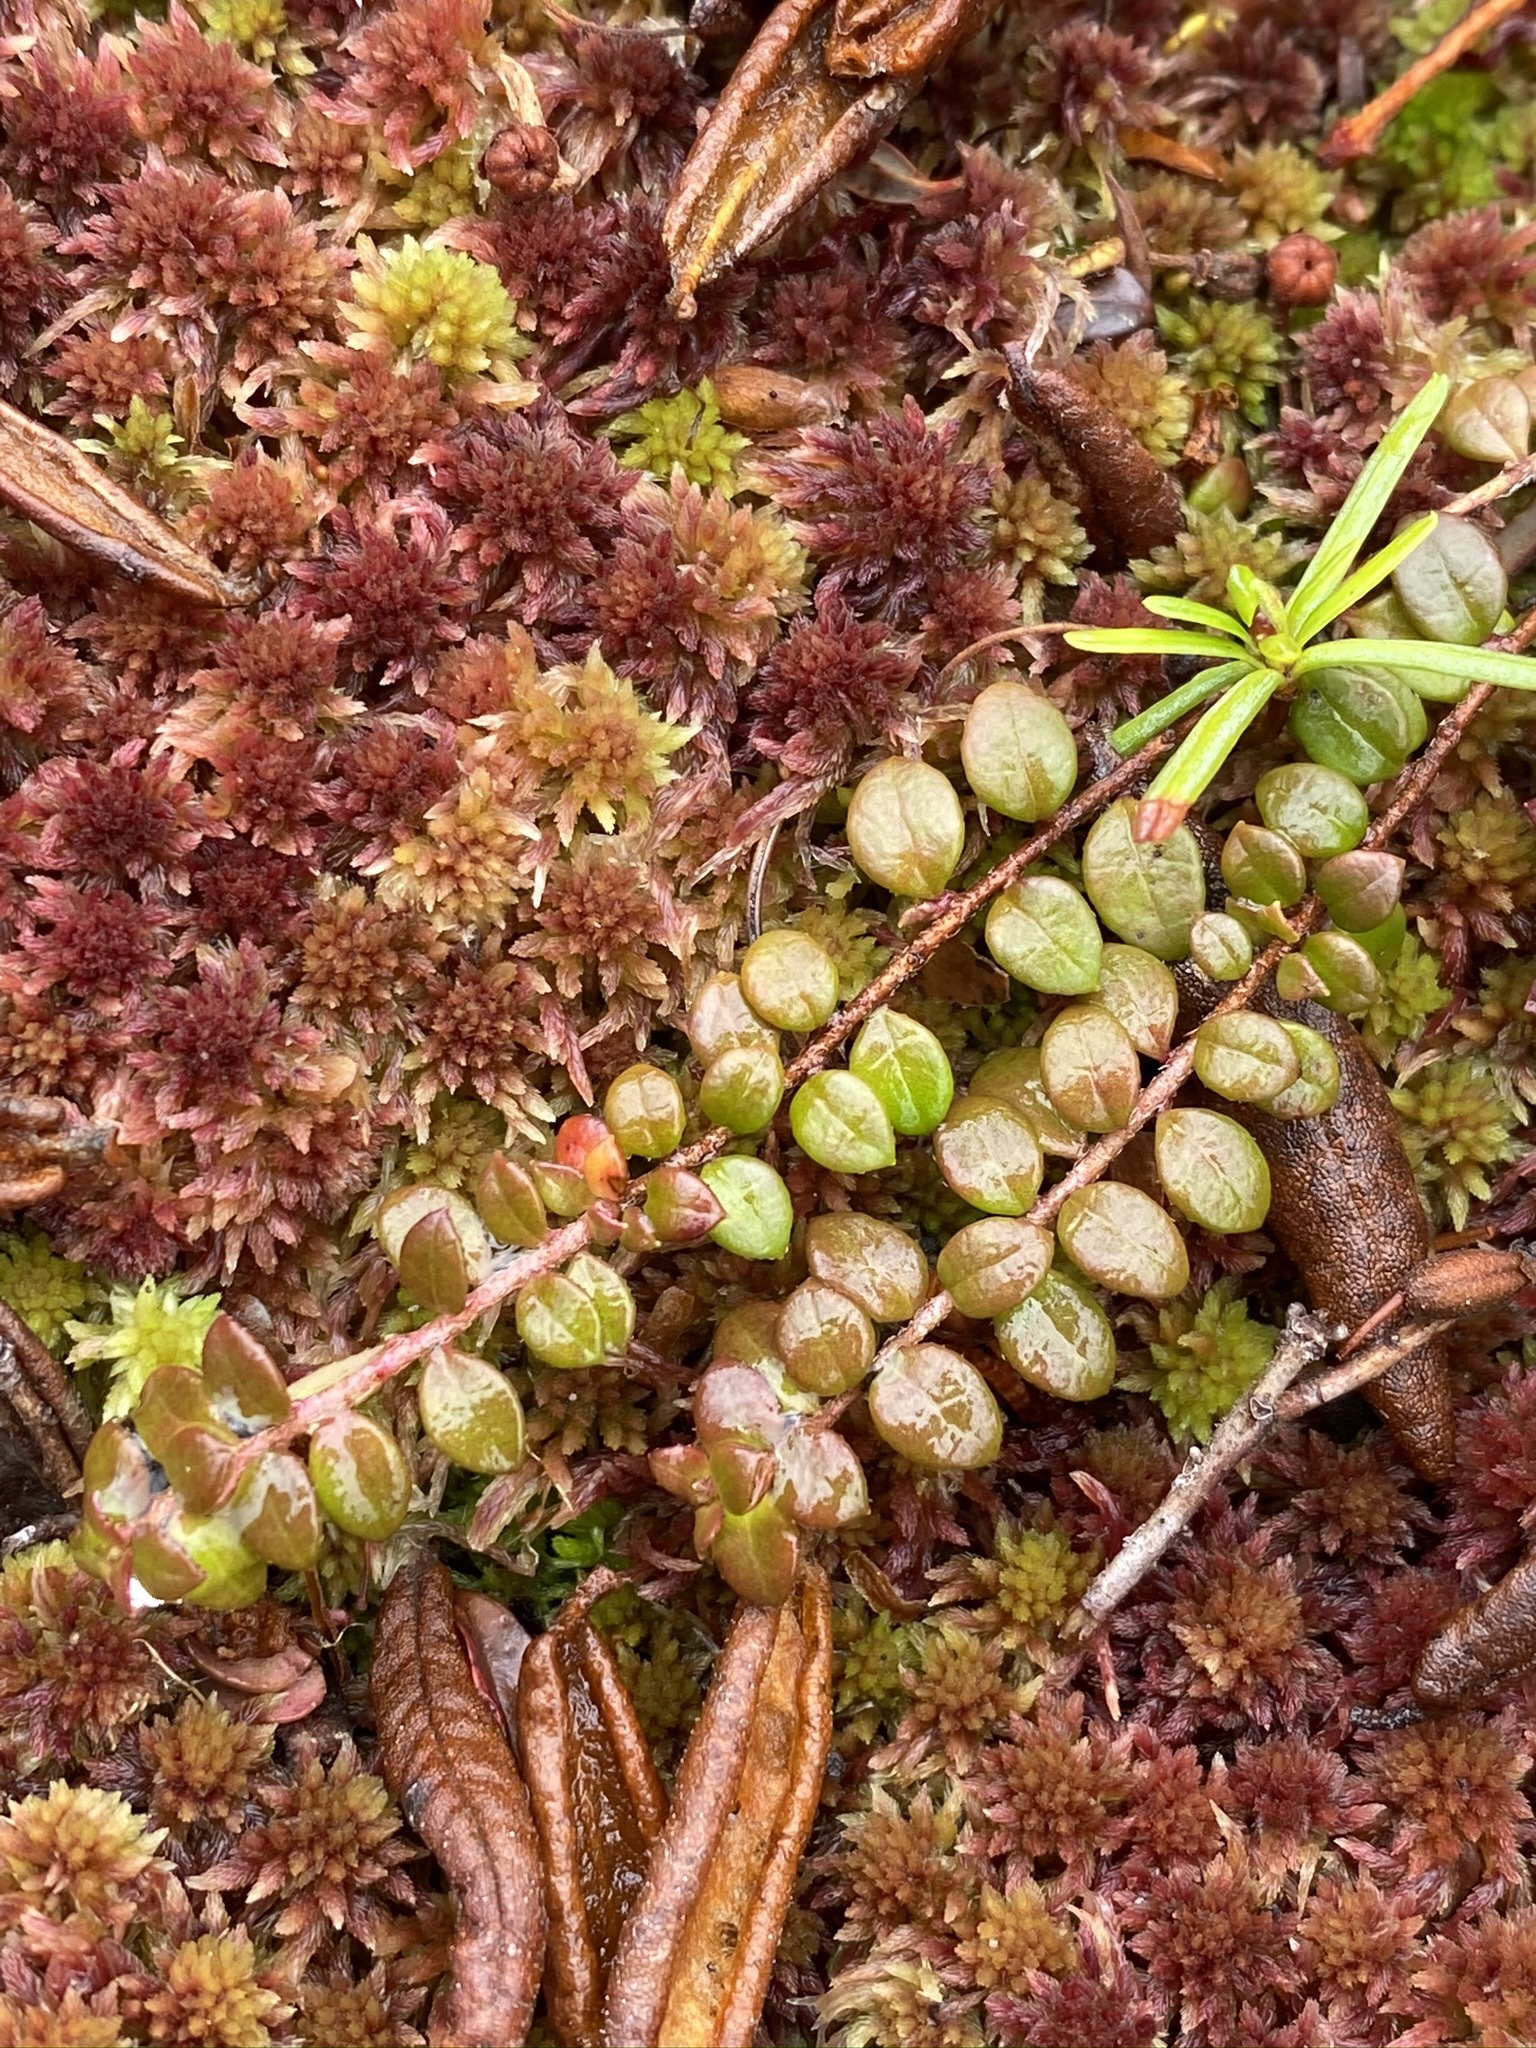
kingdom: Plantae
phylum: Tracheophyta
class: Magnoliopsida
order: Ericales
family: Ericaceae
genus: Gaultheria
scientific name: Gaultheria hispidula
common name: Cancer wintergreen
